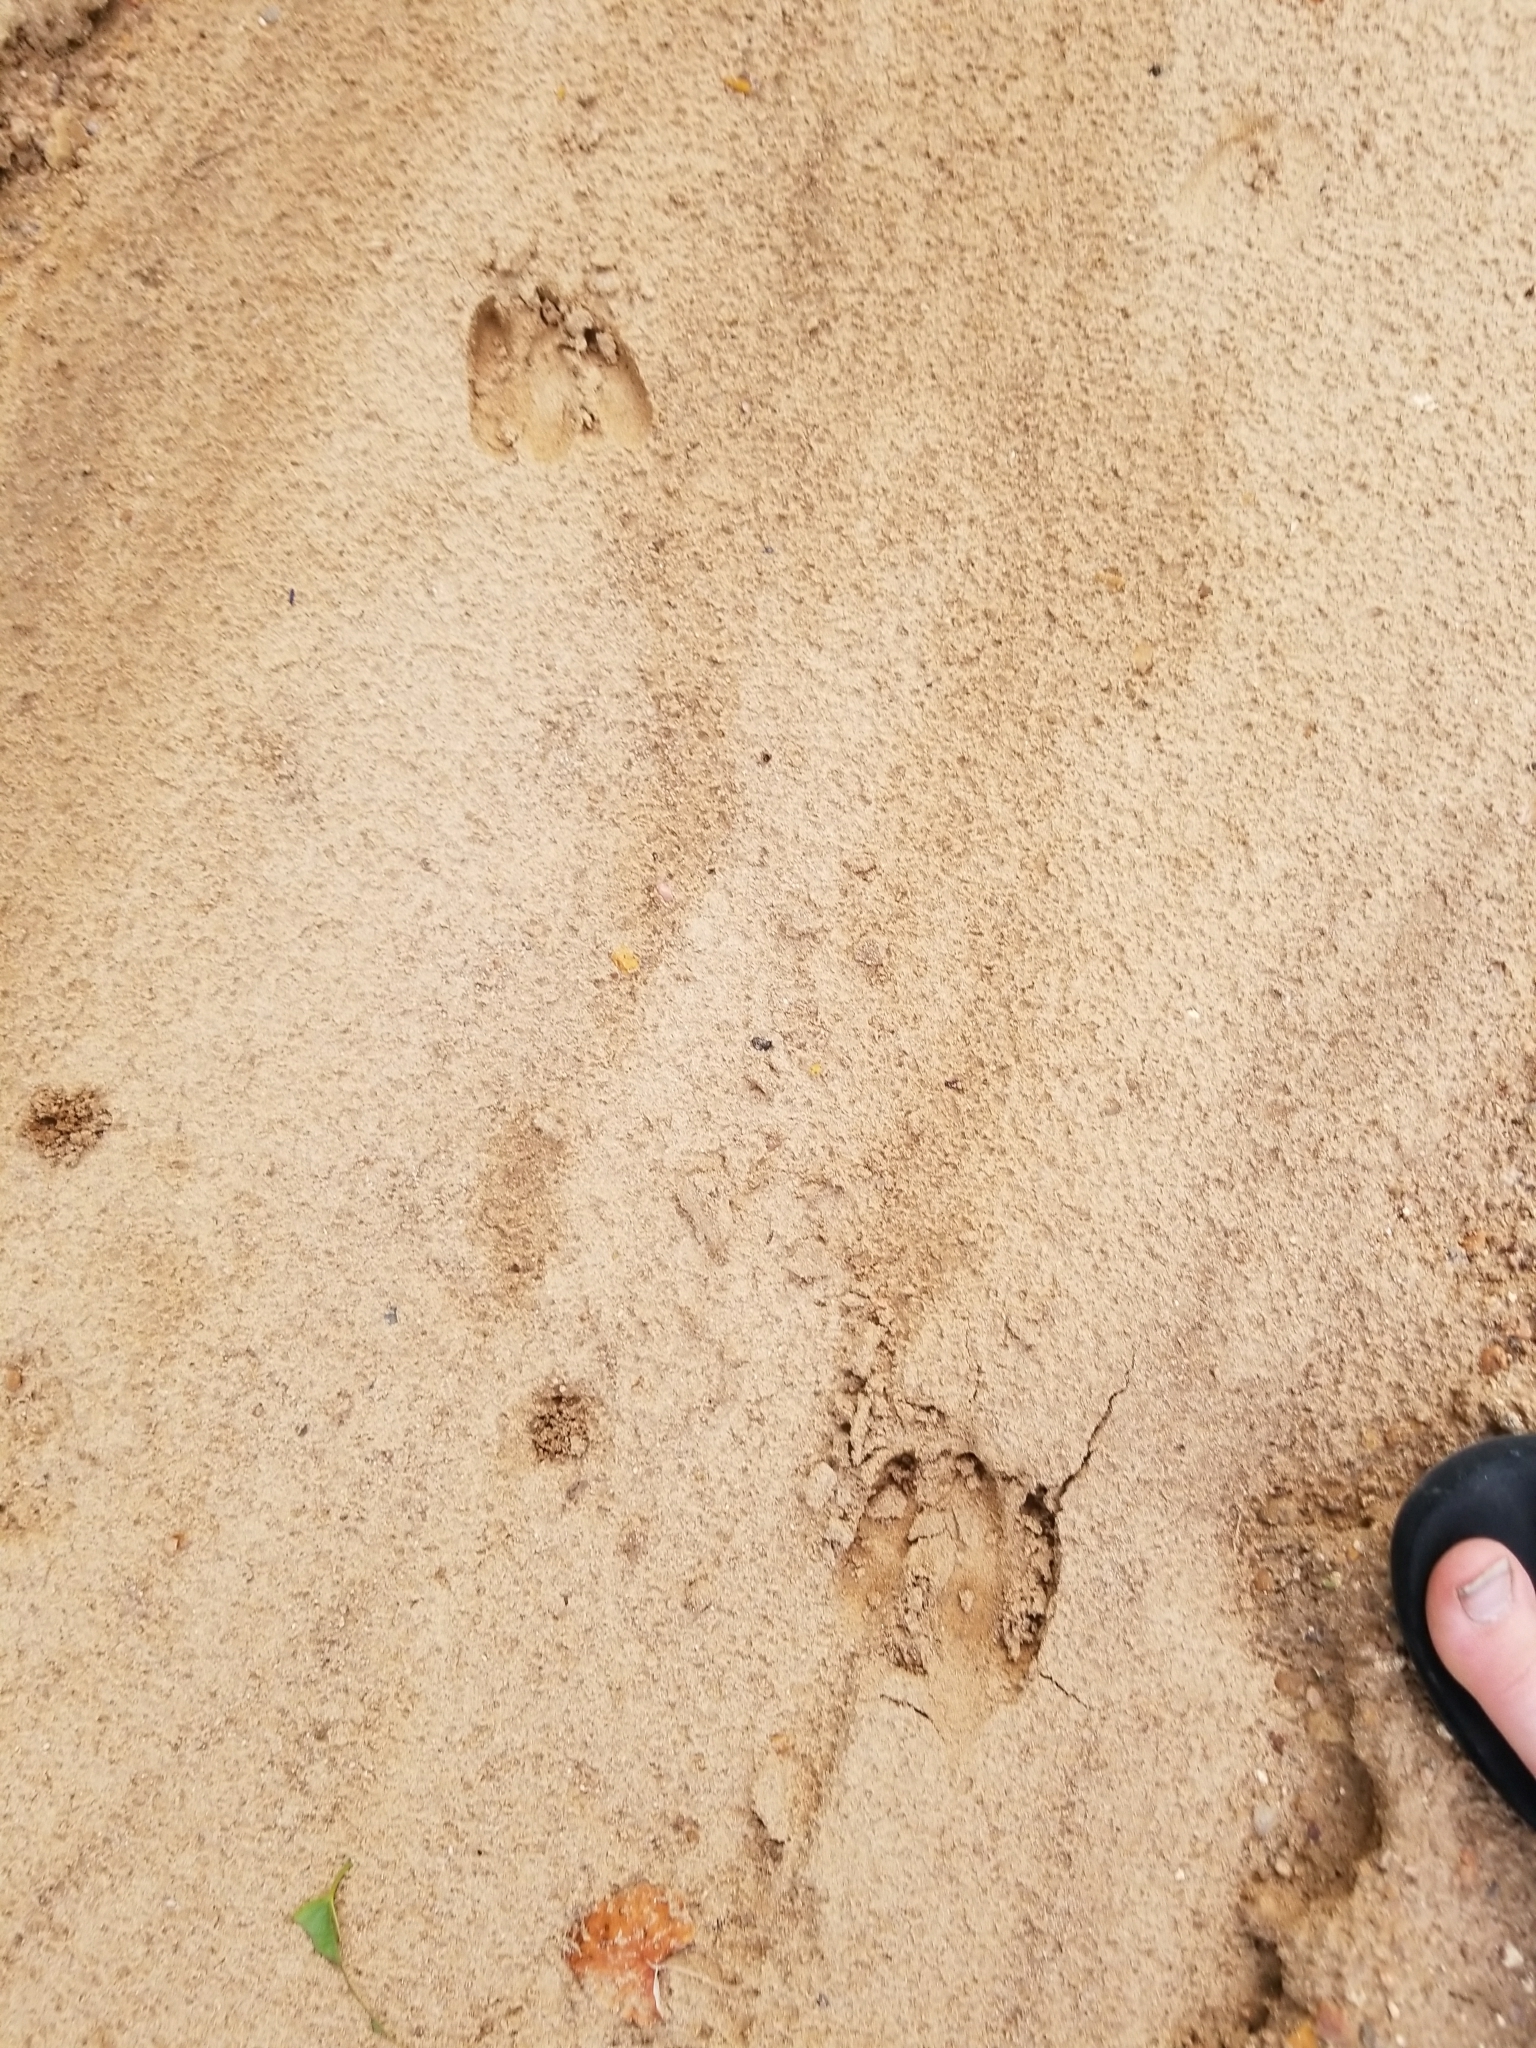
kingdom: Animalia
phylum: Chordata
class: Mammalia
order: Artiodactyla
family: Cervidae
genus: Odocoileus
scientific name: Odocoileus virginianus
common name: White-tailed deer
